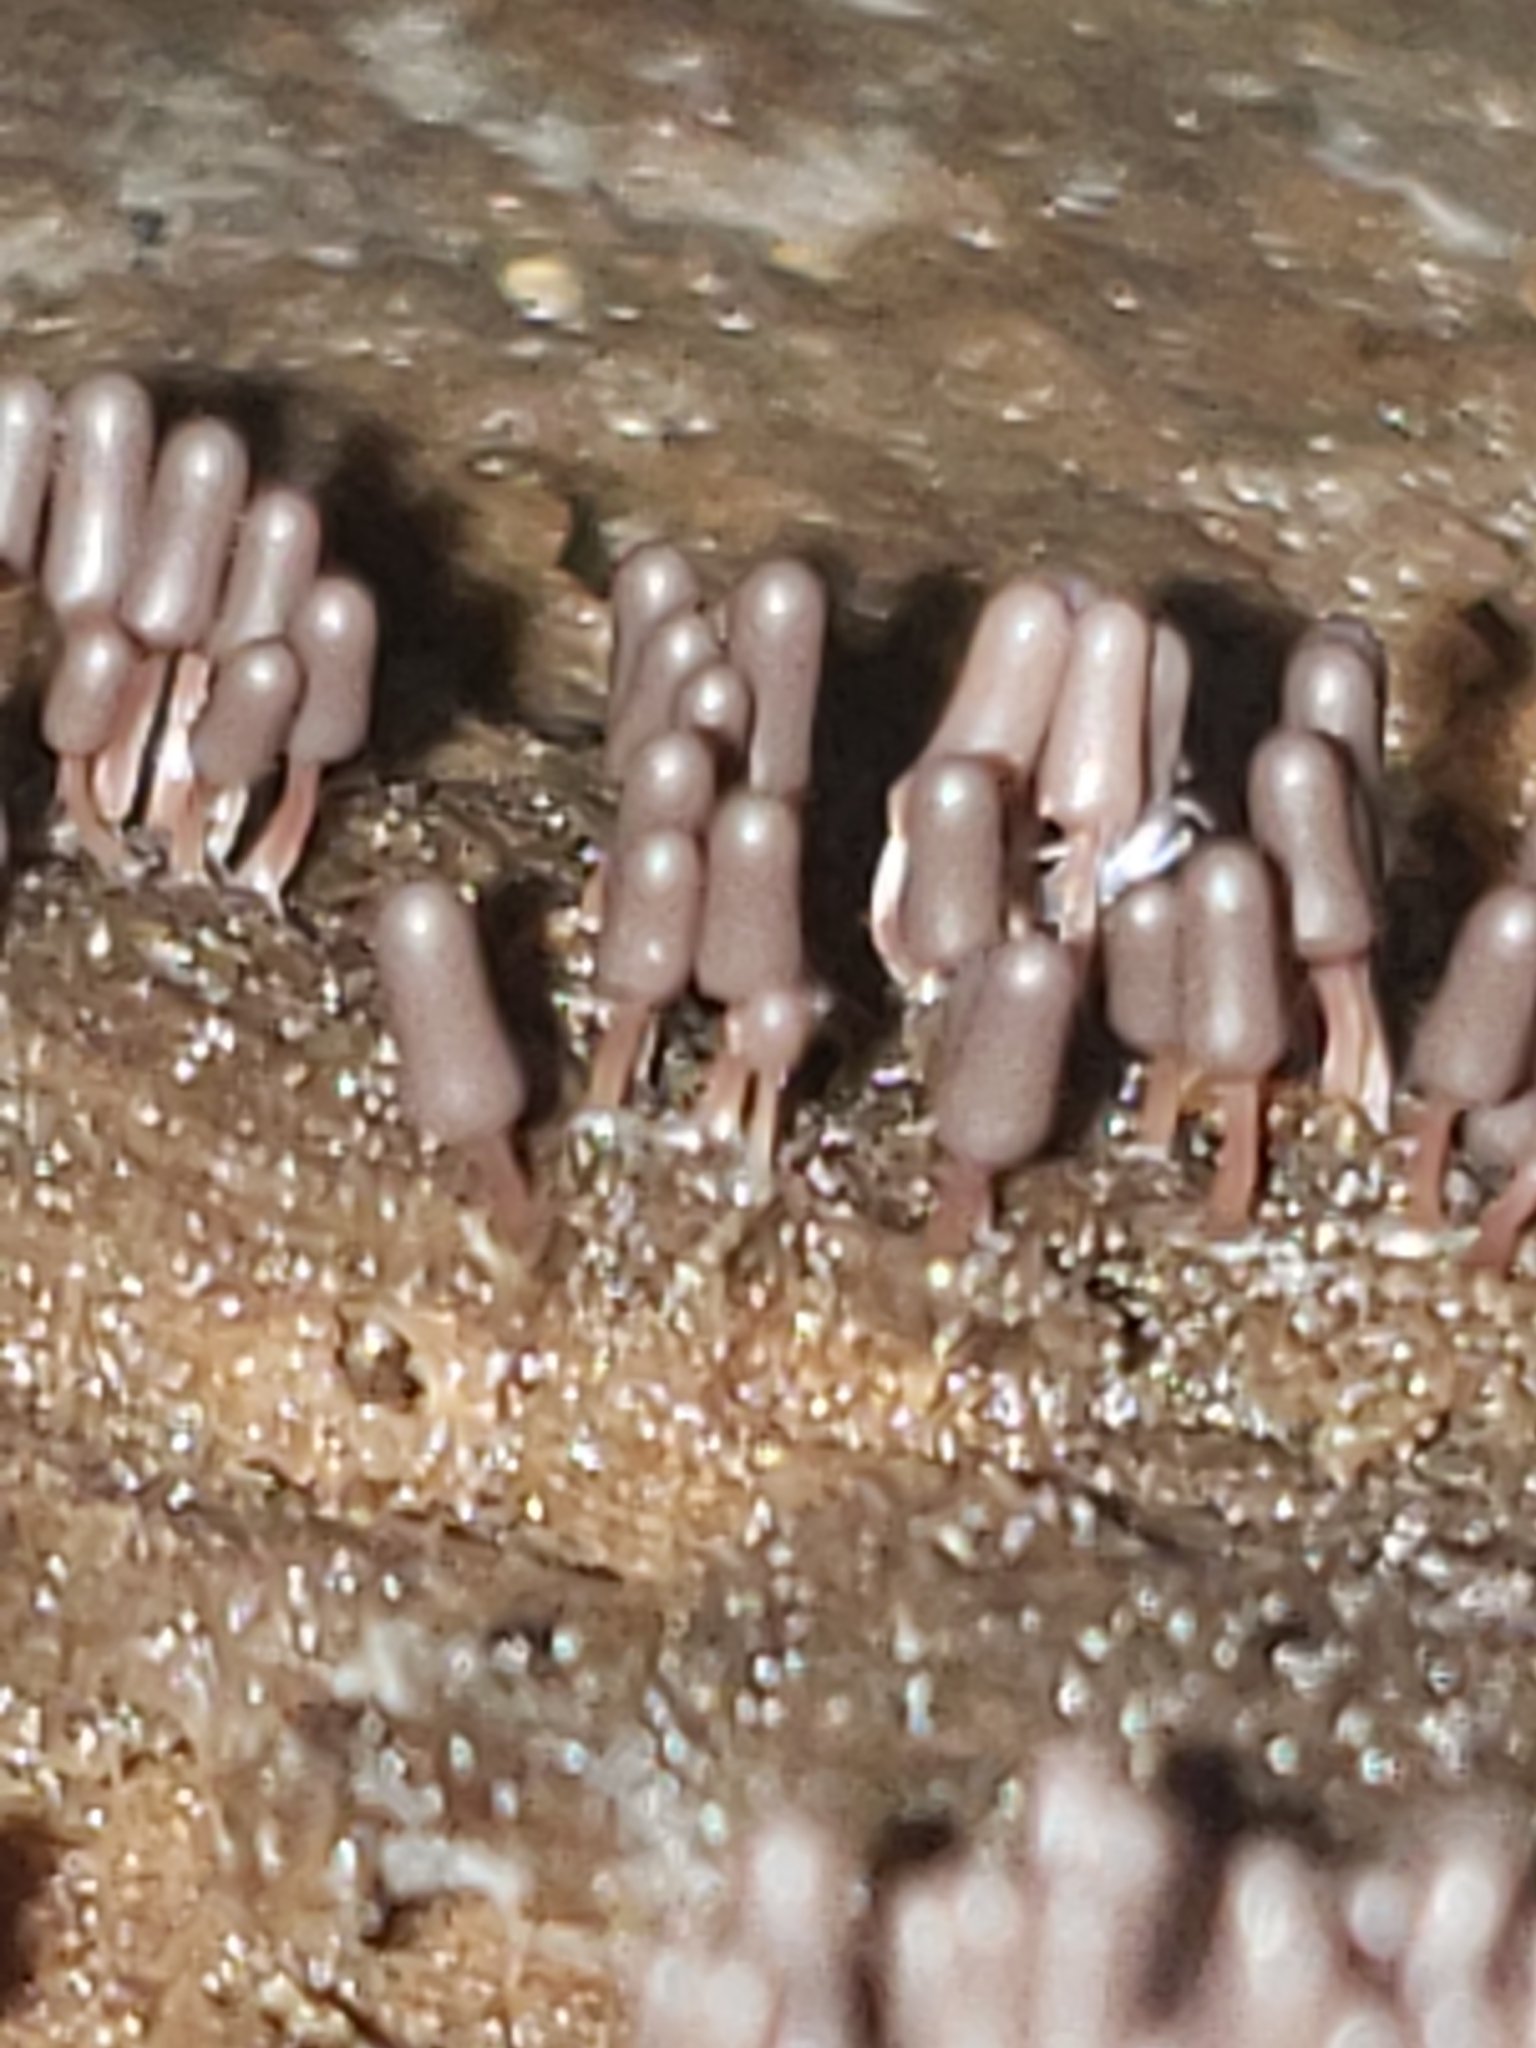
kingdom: Protozoa
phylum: Mycetozoa
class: Myxomycetes
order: Trichiales
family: Arcyriaceae
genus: Arcyria
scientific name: Arcyria denudata
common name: Carnival candy slime mold
